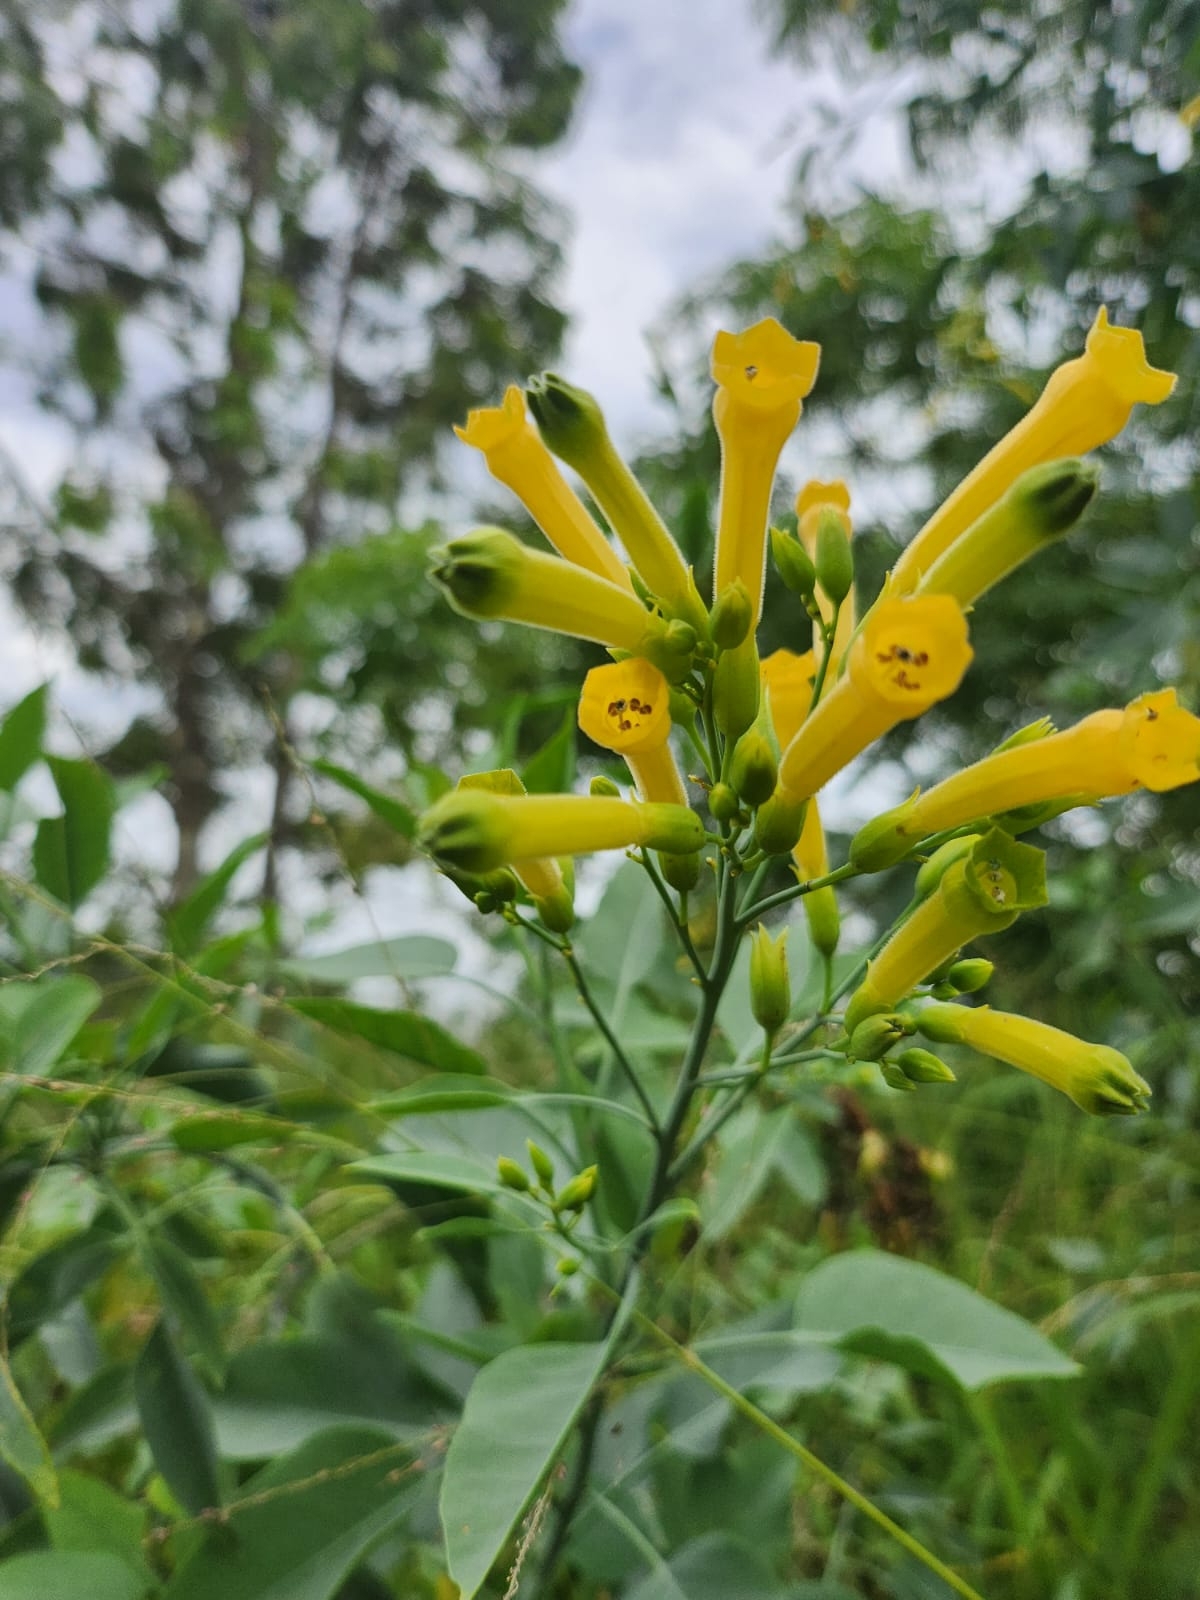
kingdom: Plantae
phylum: Tracheophyta
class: Magnoliopsida
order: Solanales
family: Solanaceae
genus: Nicotiana
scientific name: Nicotiana glauca
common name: Tree tobacco
